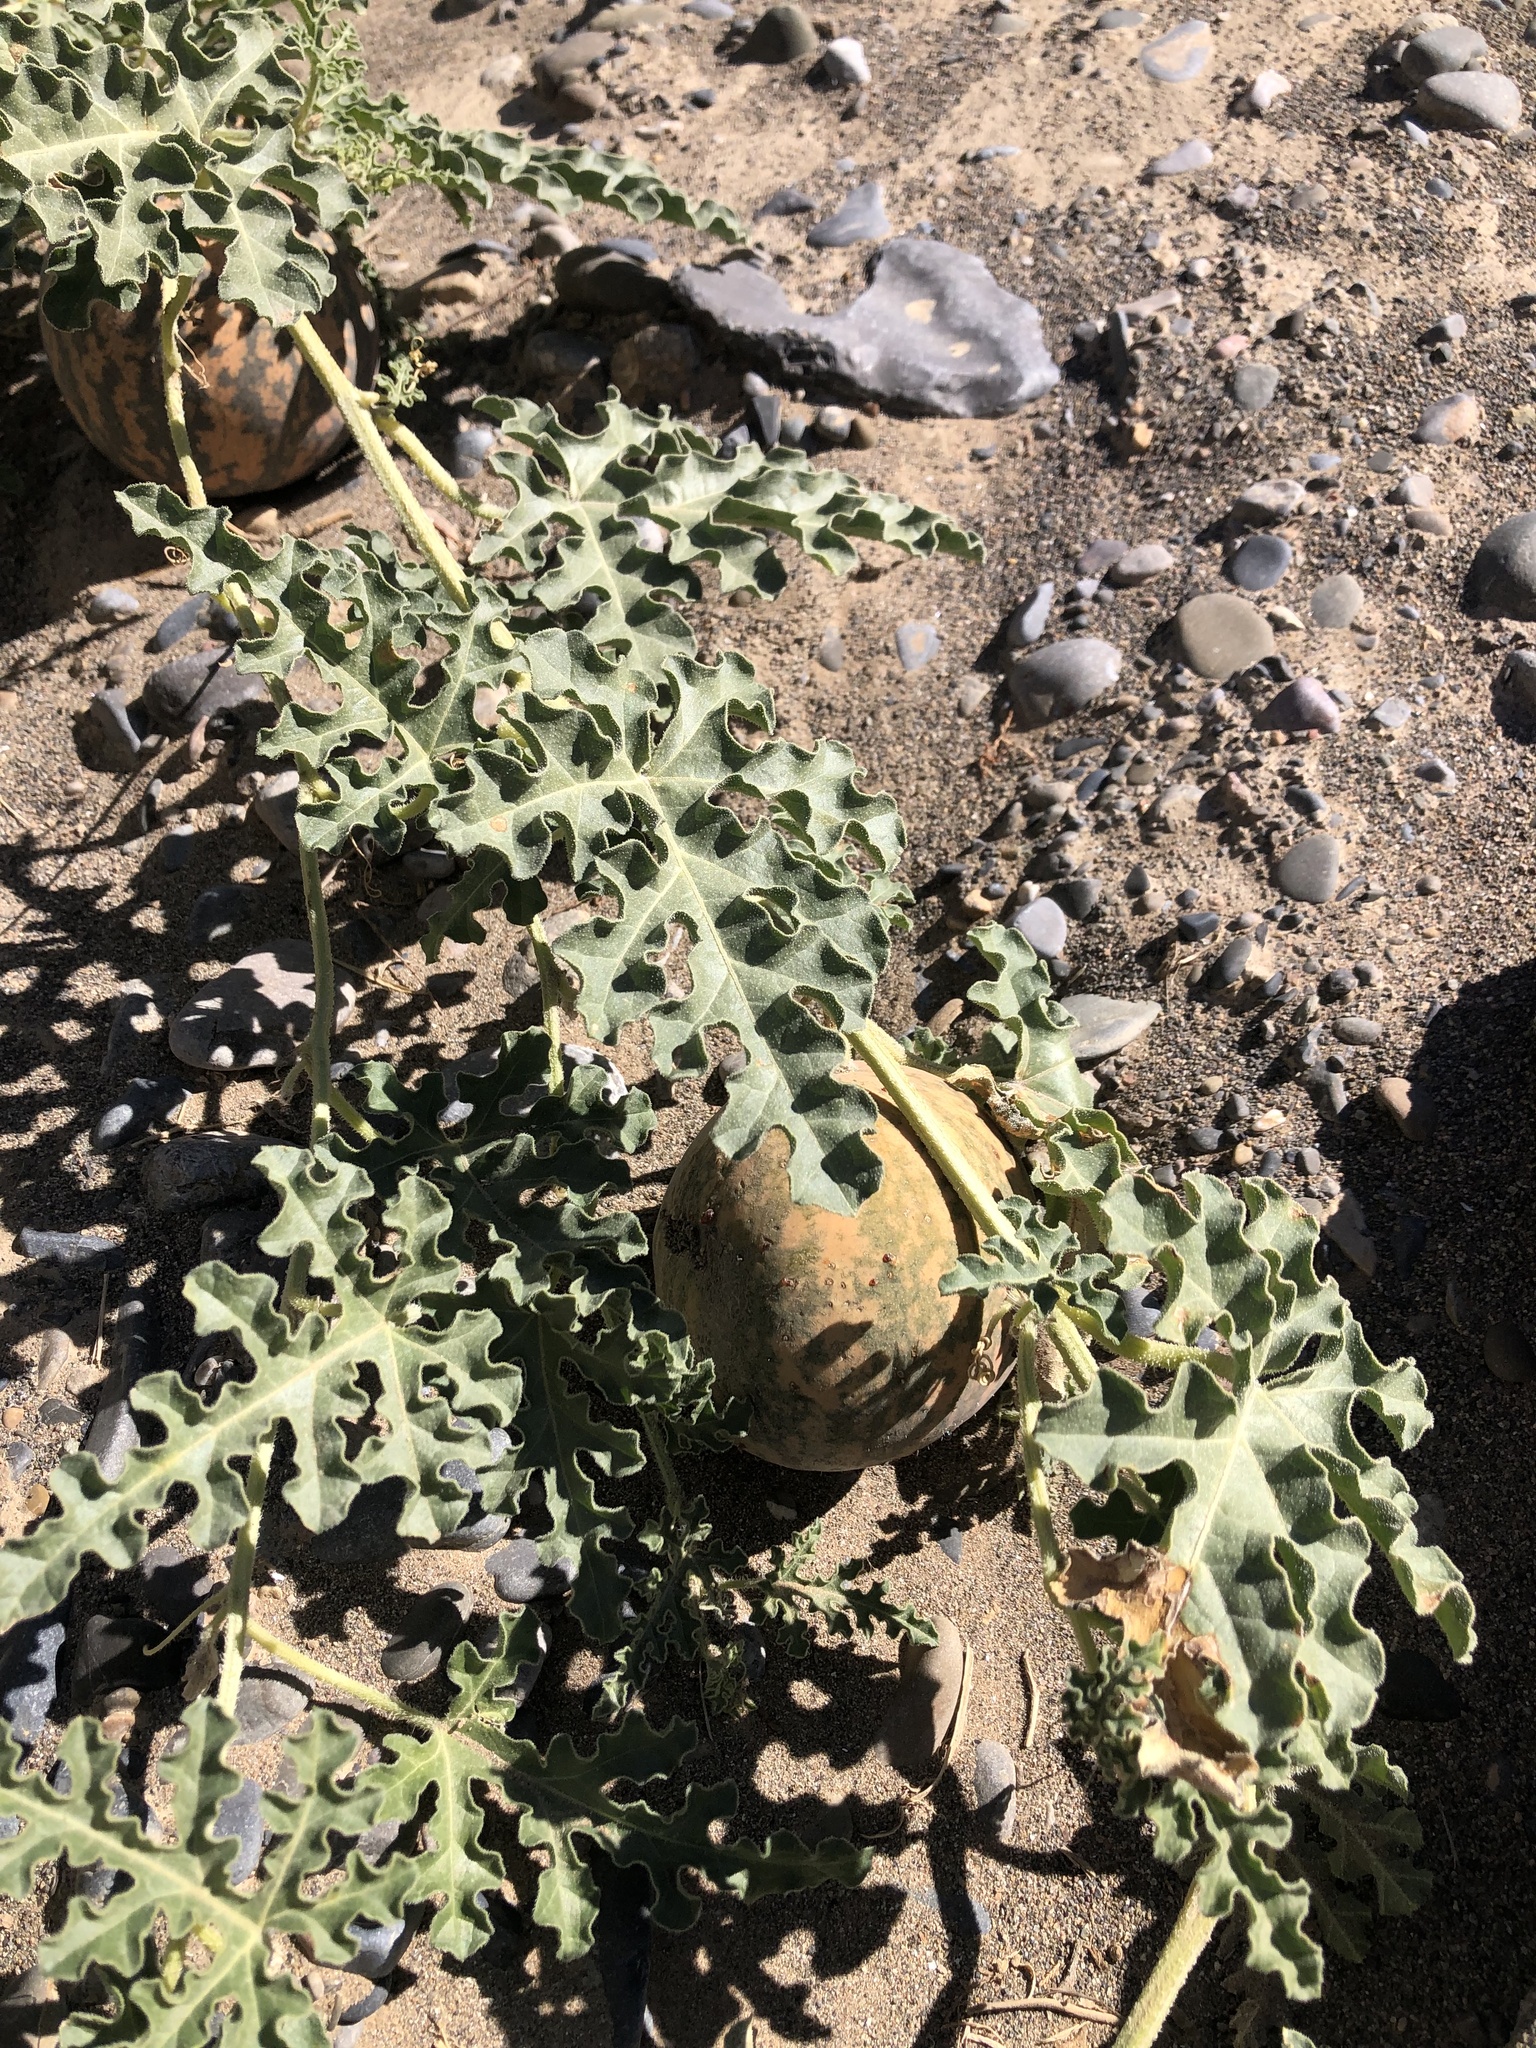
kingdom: Plantae
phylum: Tracheophyta
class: Magnoliopsida
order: Cucurbitales
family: Cucurbitaceae
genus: Citrullus
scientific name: Citrullus colocynthis
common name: Colocynth
